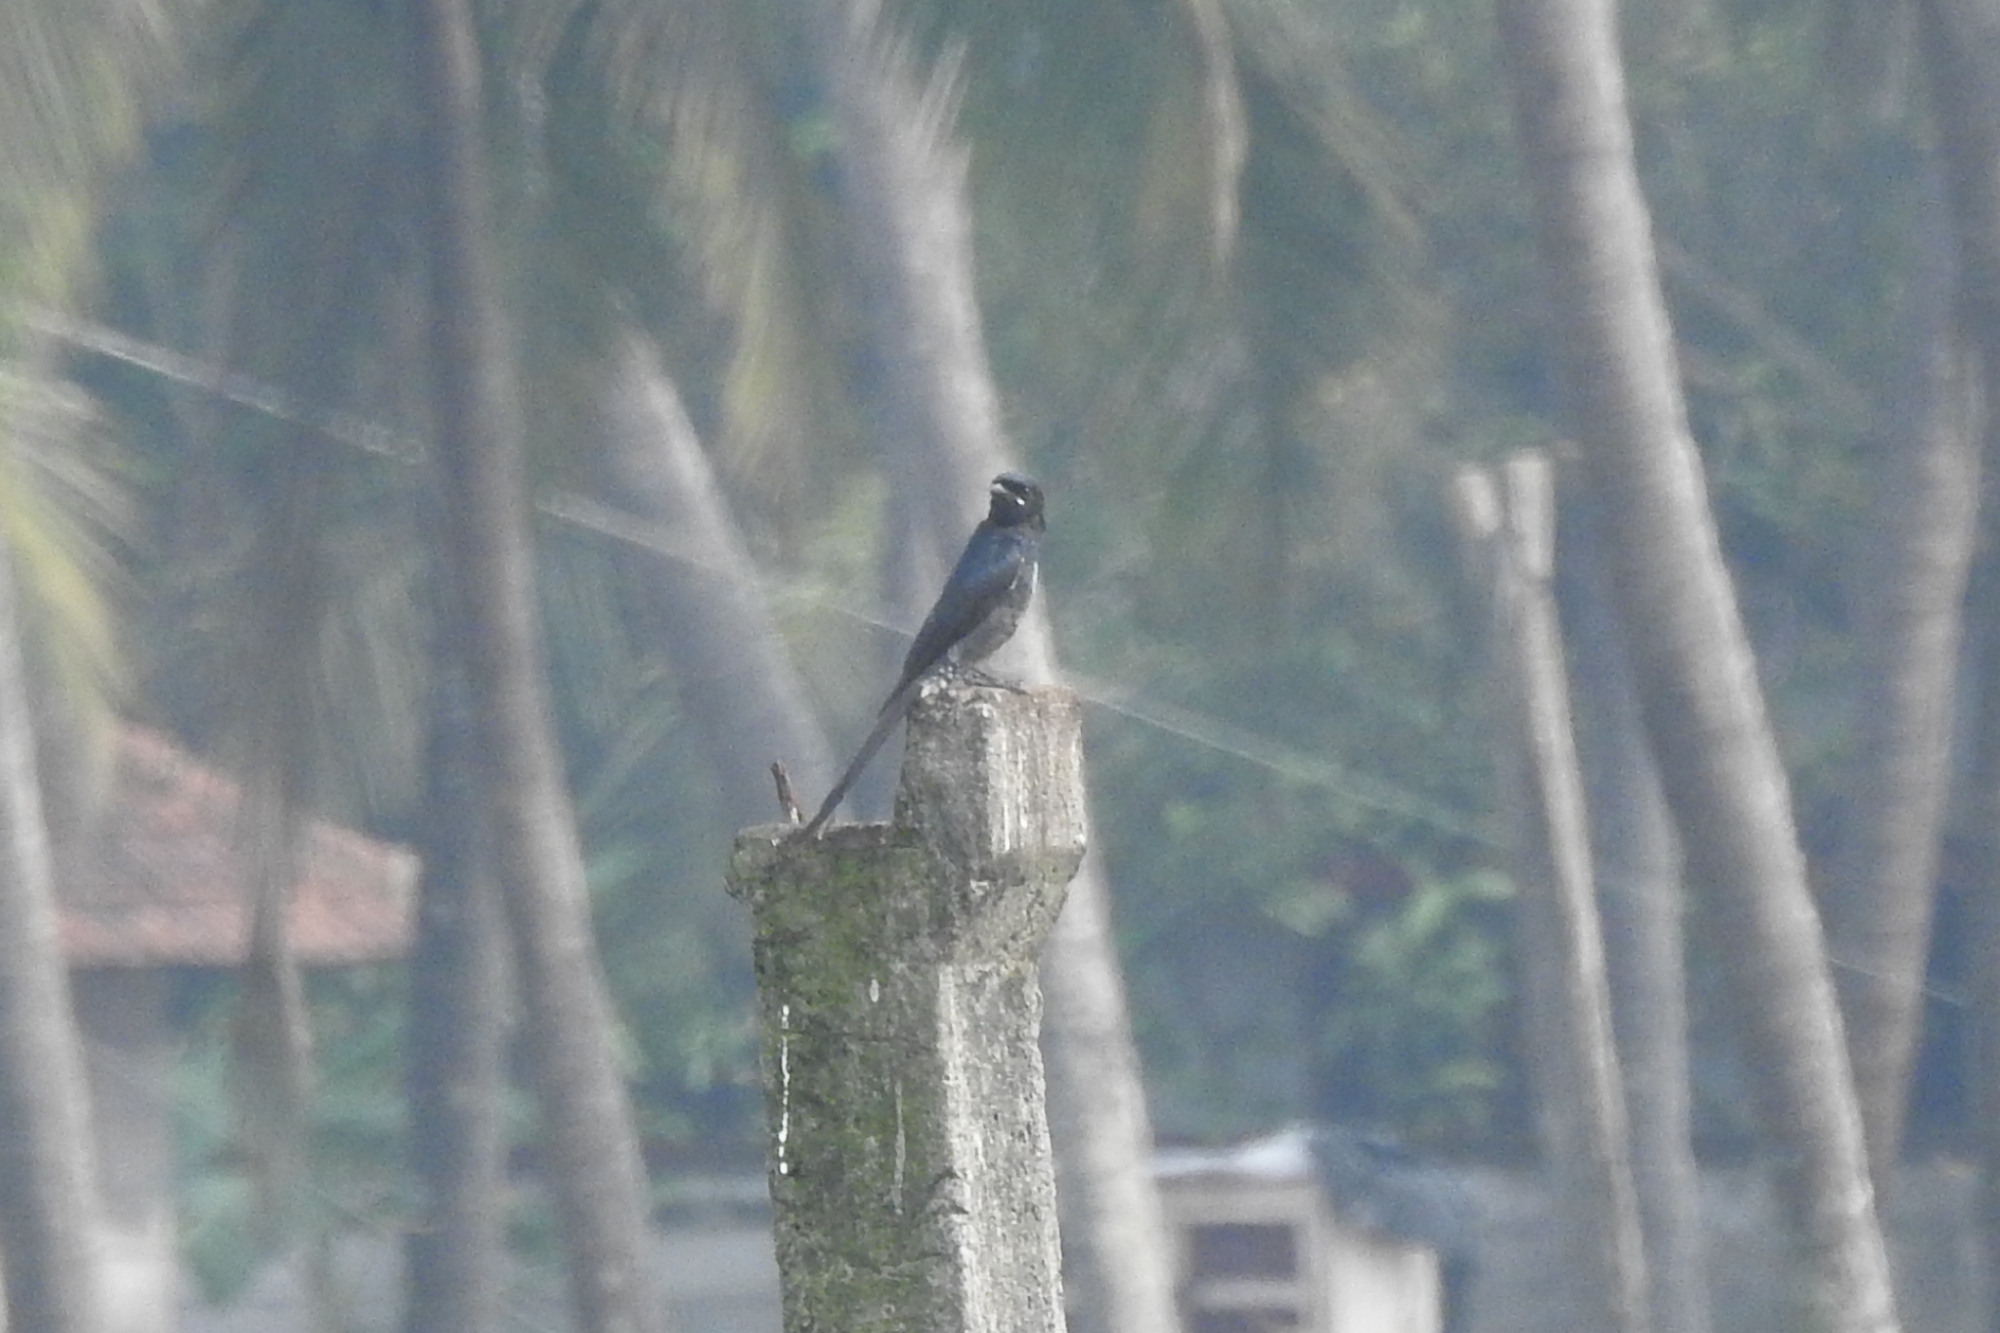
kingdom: Animalia
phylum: Chordata
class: Aves
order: Passeriformes
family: Dicruridae
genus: Dicrurus
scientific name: Dicrurus macrocercus
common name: Black drongo
